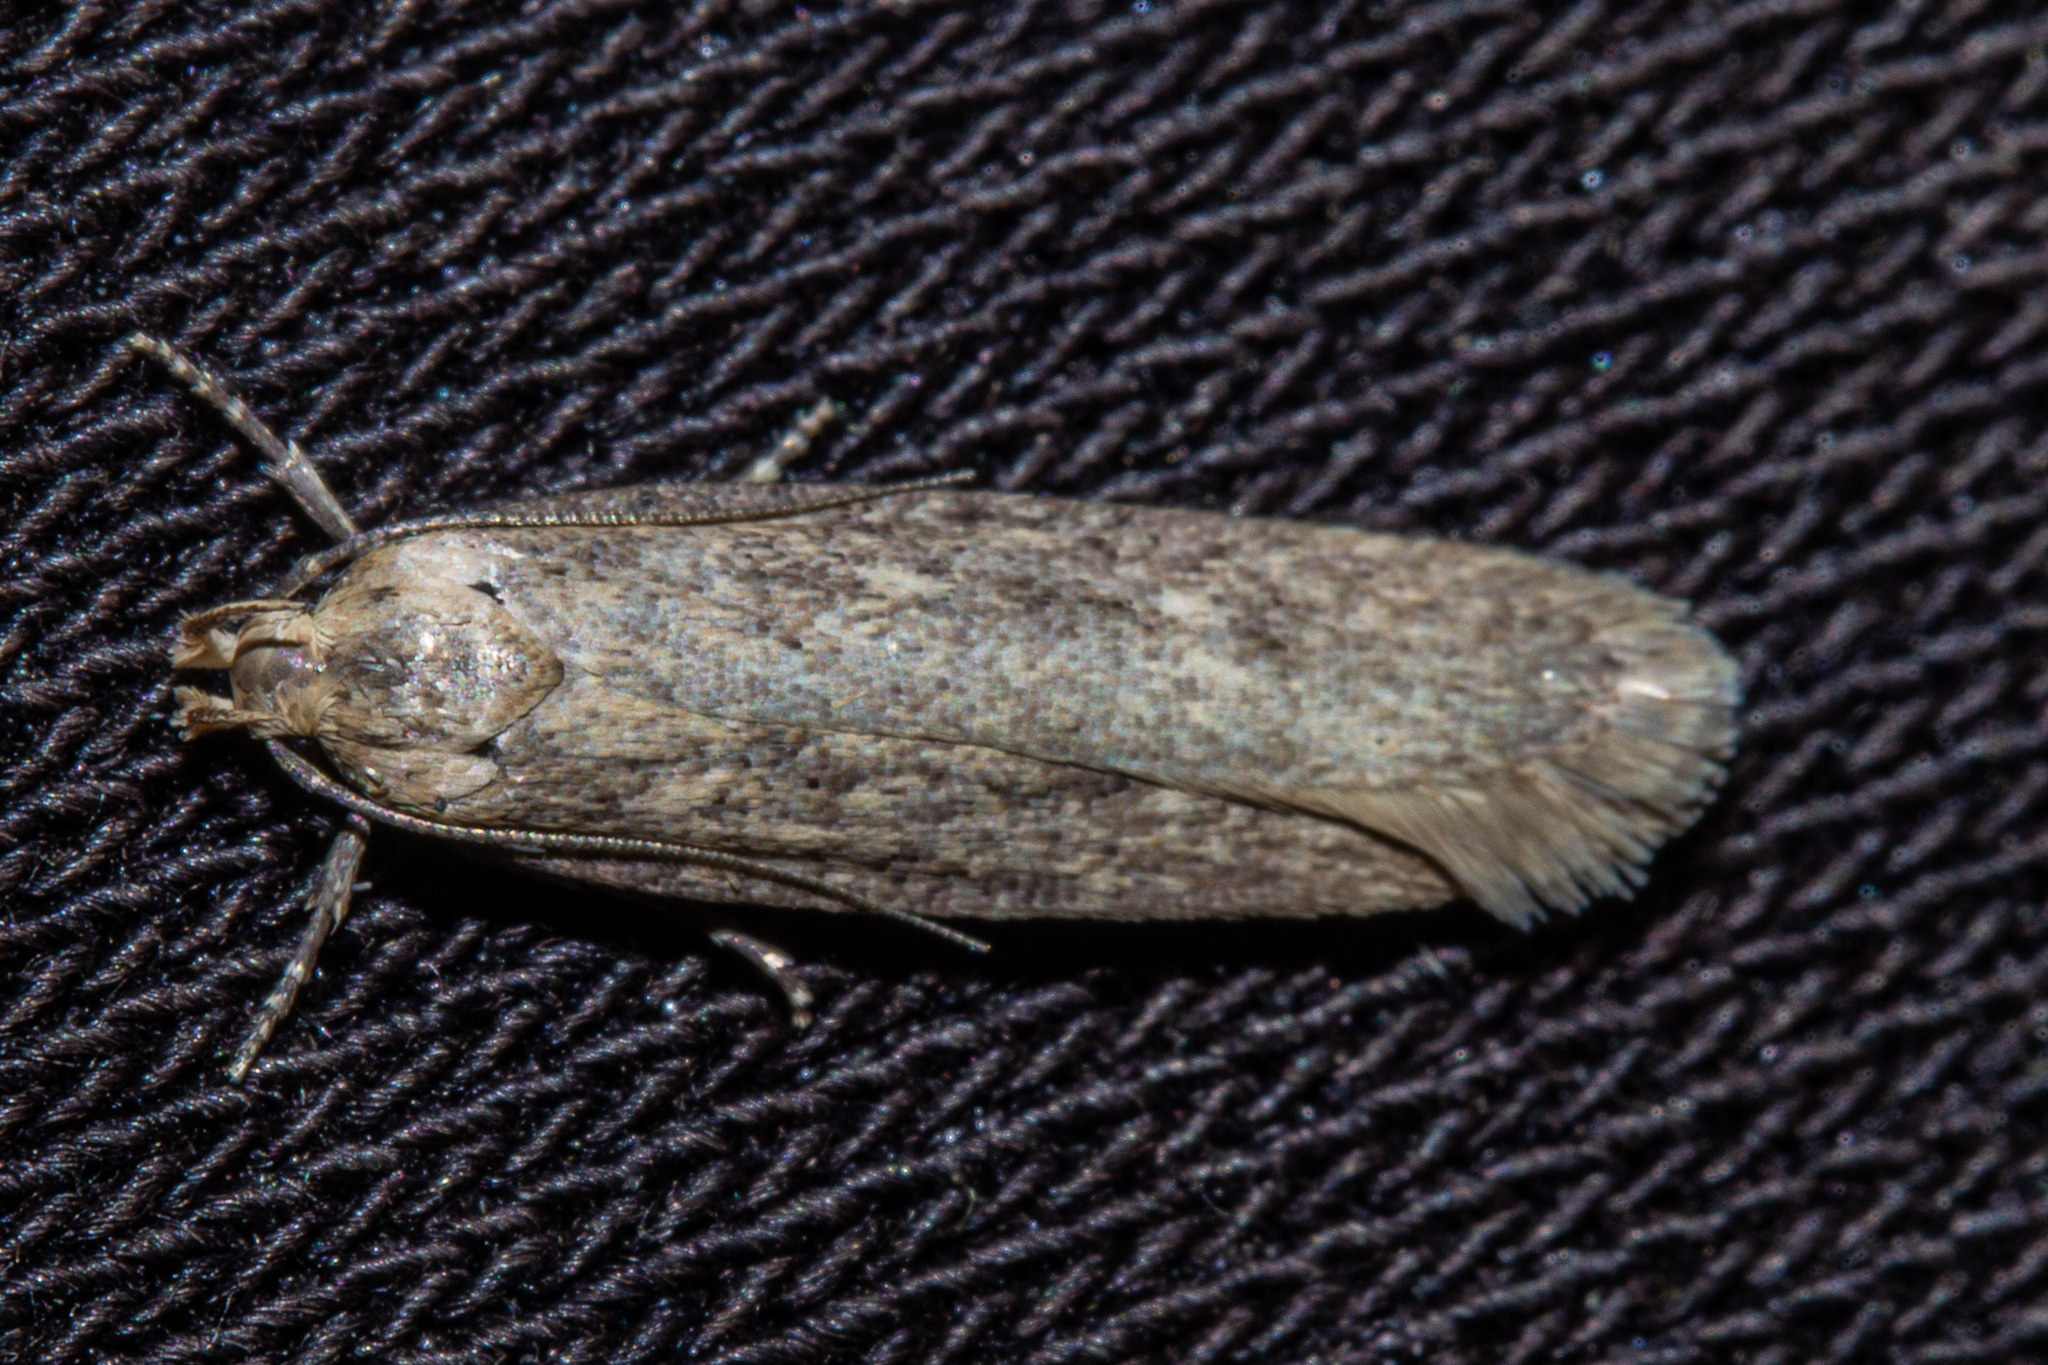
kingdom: Animalia
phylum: Arthropoda
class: Insecta
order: Lepidoptera
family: Gelechiidae
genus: Platyedra
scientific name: Platyedra subcinerea
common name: Moth
